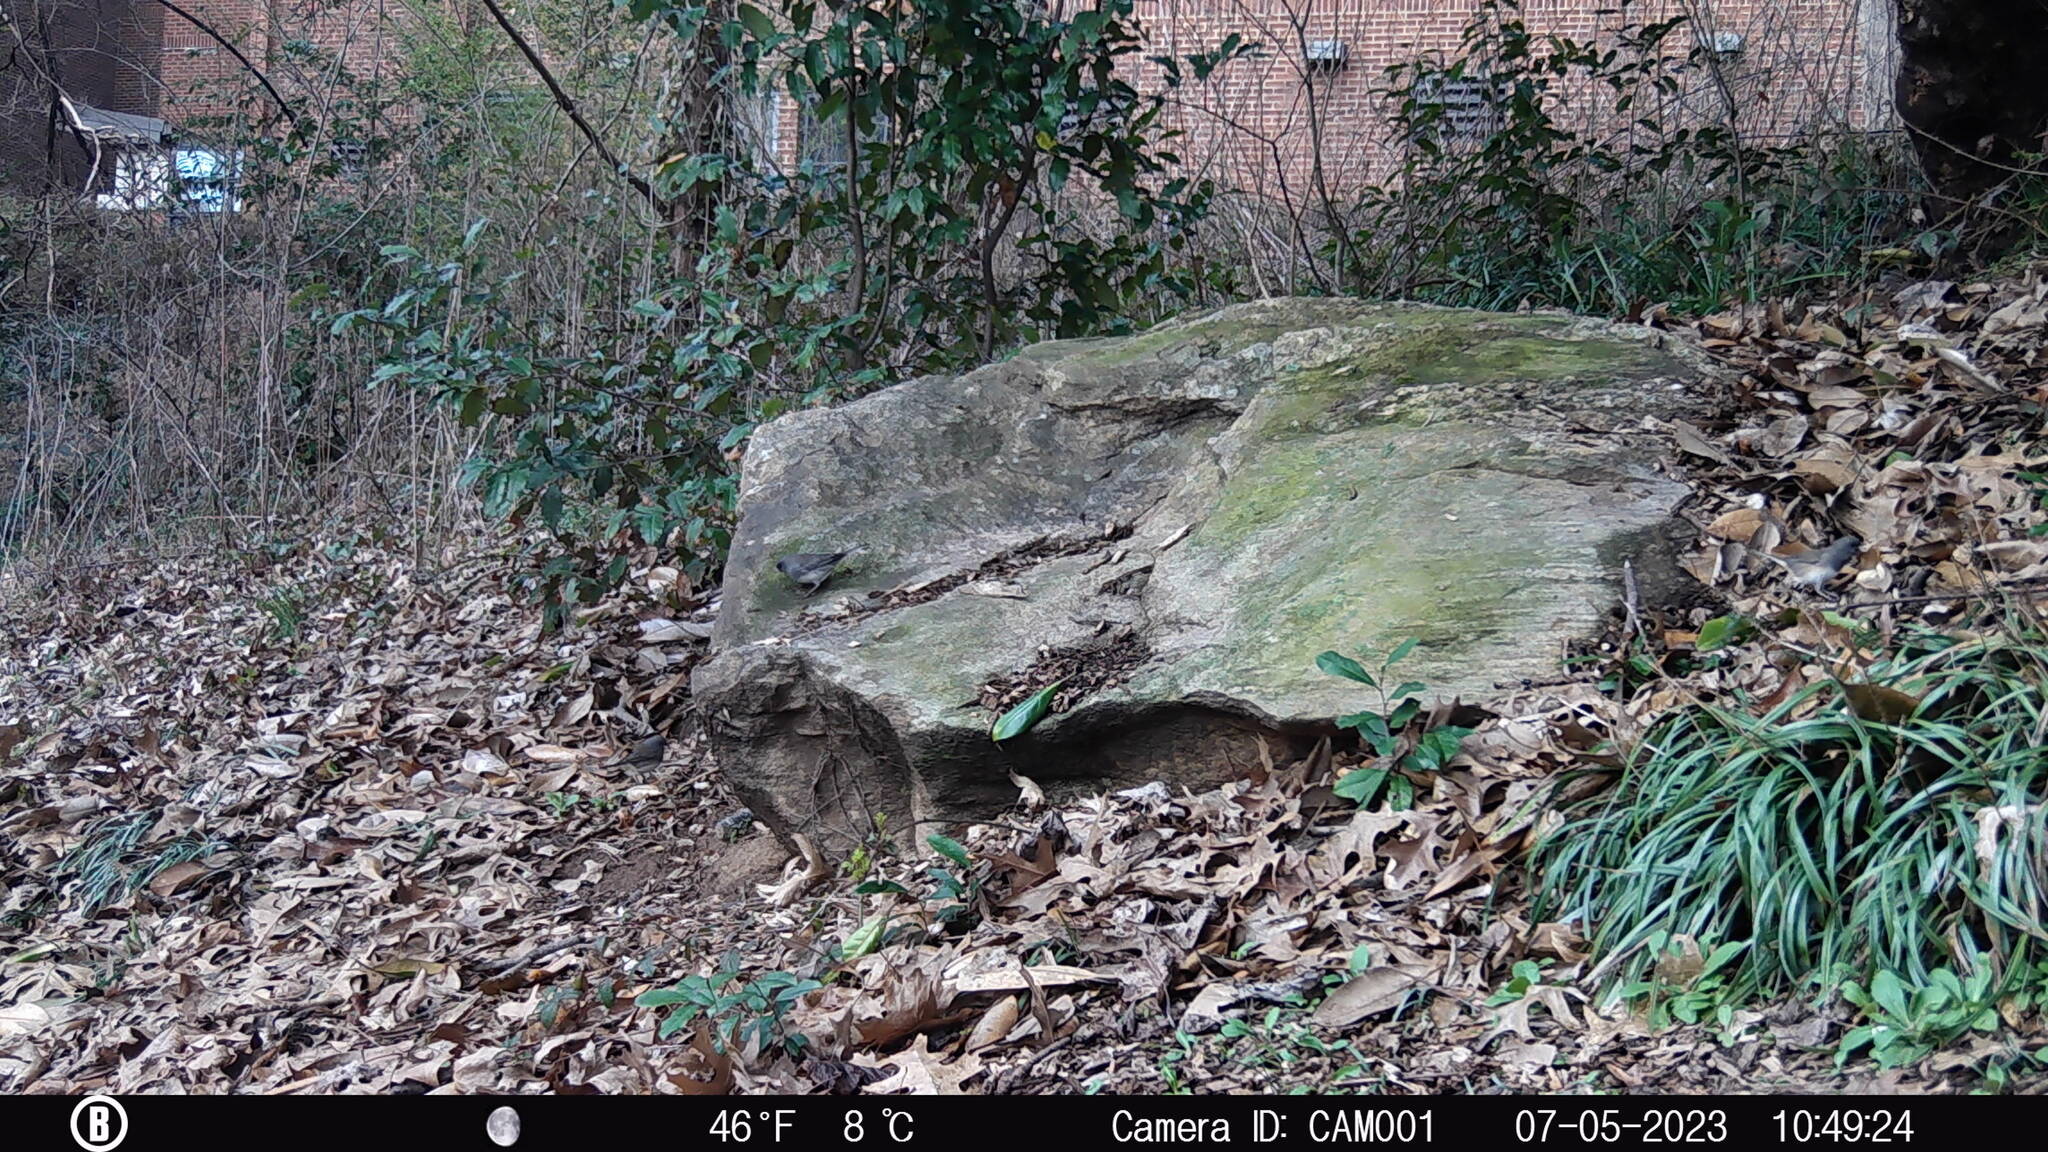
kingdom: Animalia
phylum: Chordata
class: Aves
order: Passeriformes
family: Passerellidae
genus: Junco
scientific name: Junco hyemalis
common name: Dark-eyed junco
